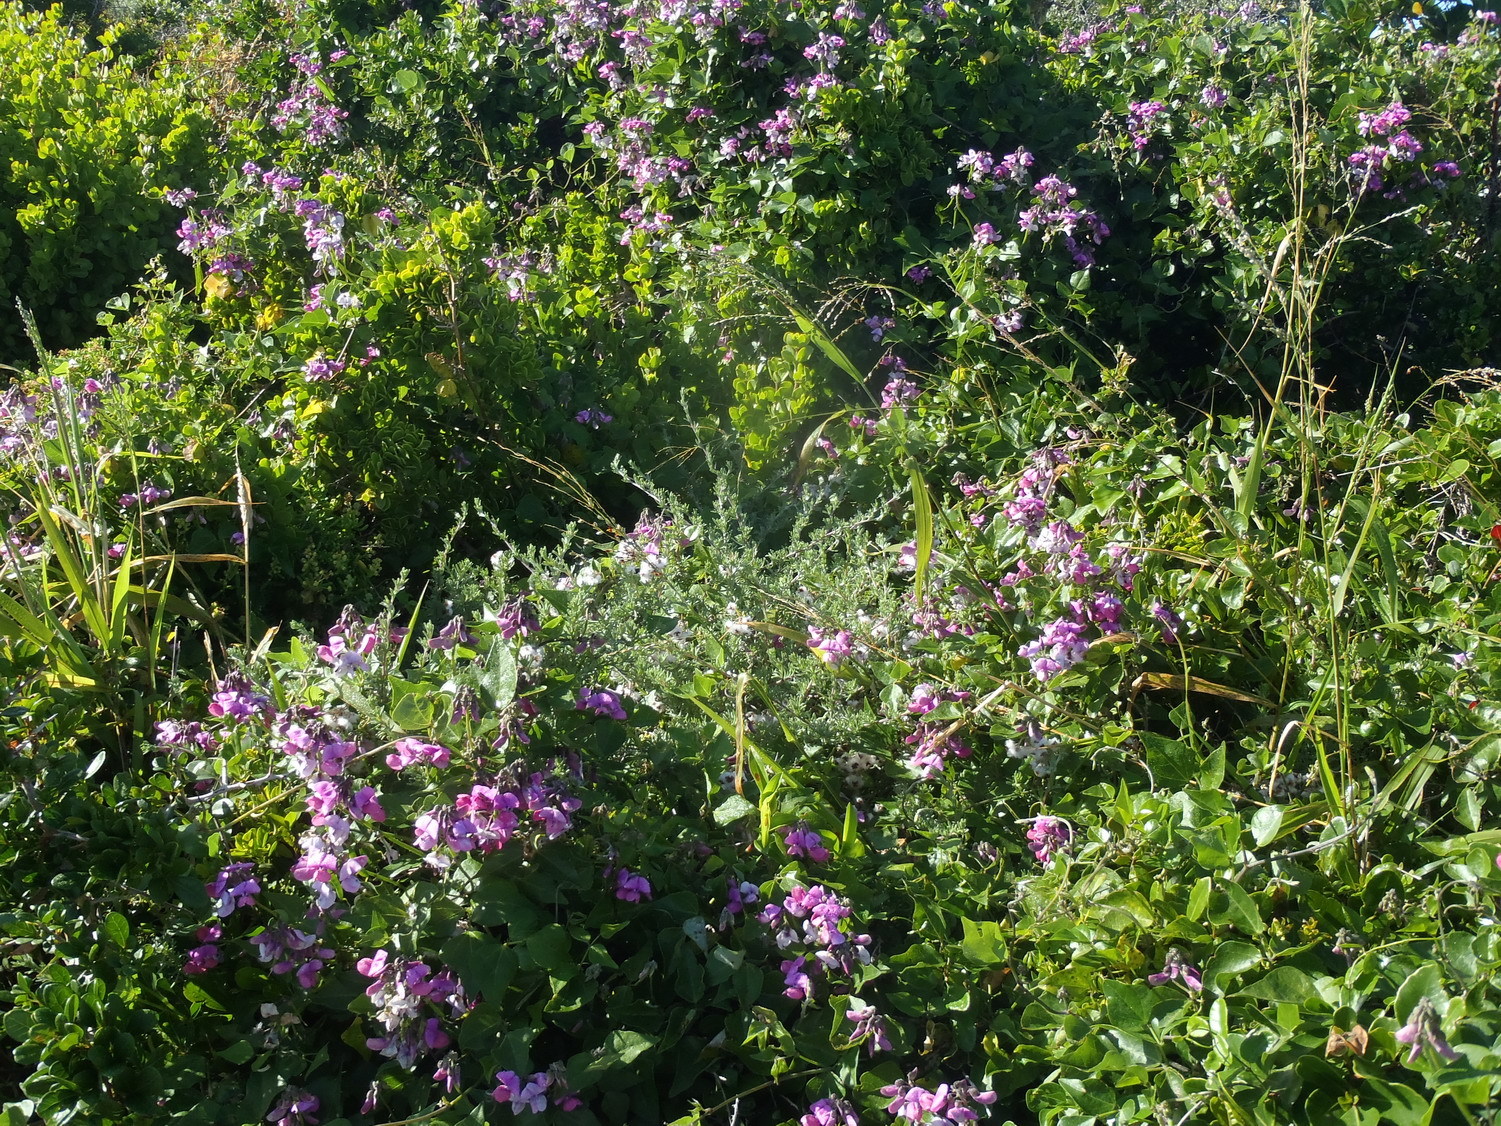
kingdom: Plantae
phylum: Tracheophyta
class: Magnoliopsida
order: Fabales
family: Fabaceae
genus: Dipogon
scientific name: Dipogon lignosus
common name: Okie bean
